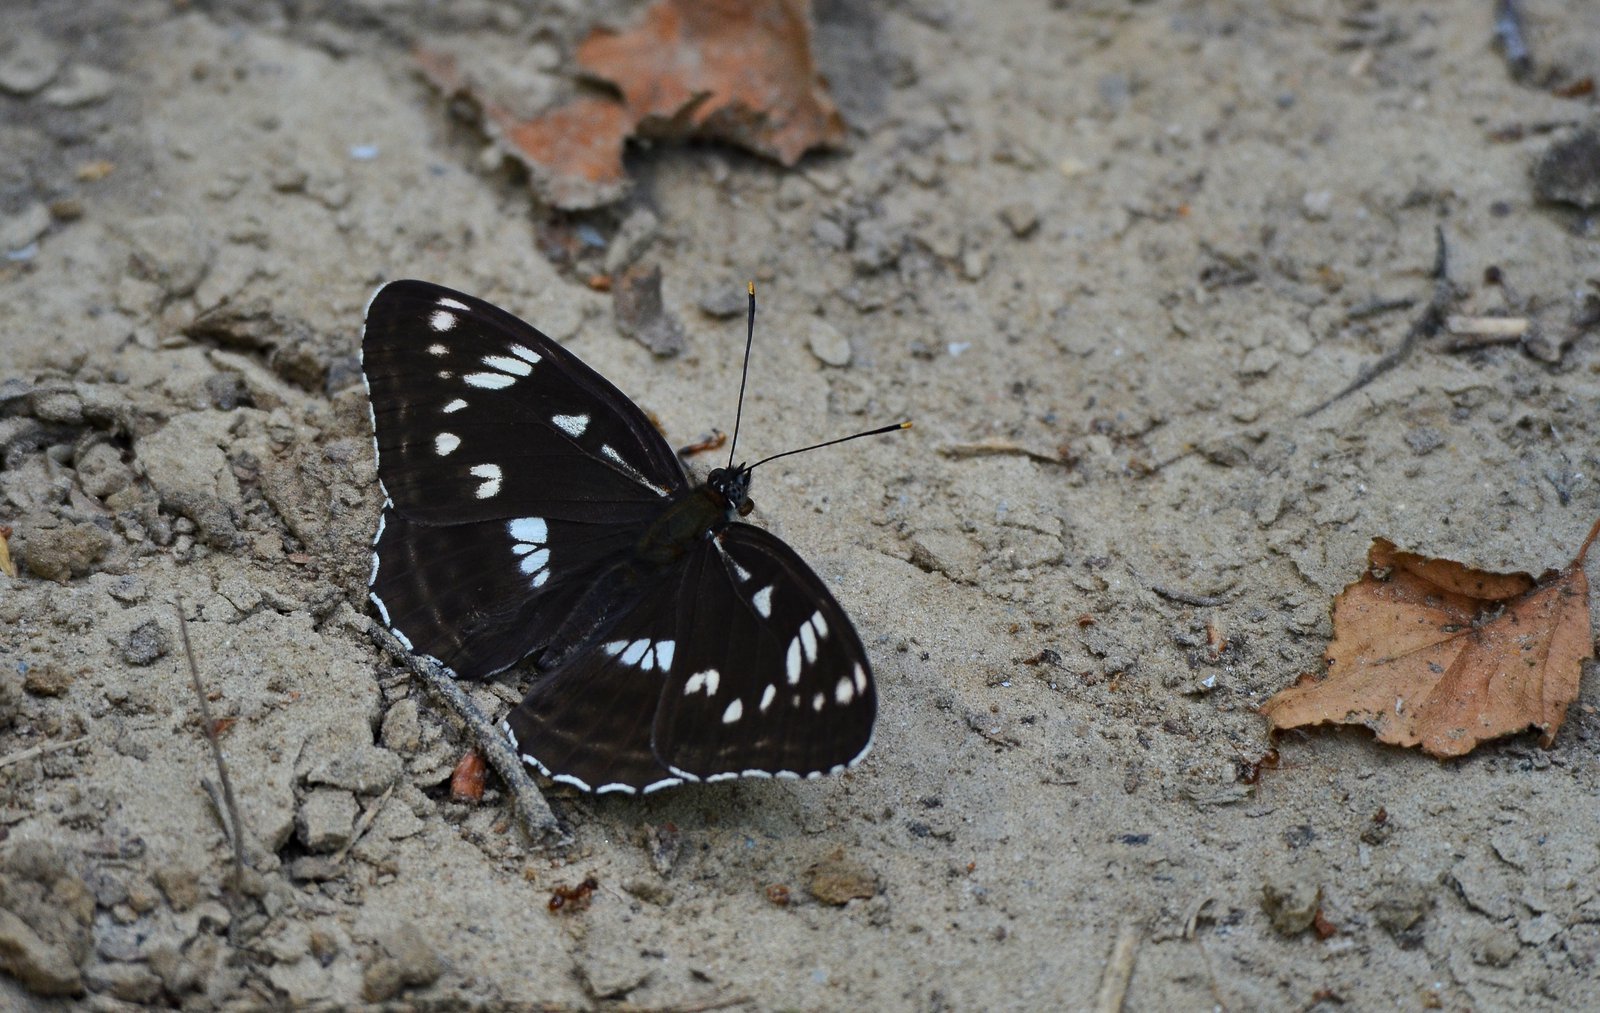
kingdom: Animalia
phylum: Arthropoda
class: Insecta
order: Lepidoptera
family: Nymphalidae
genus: Limenitis
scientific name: Limenitis helmanni
